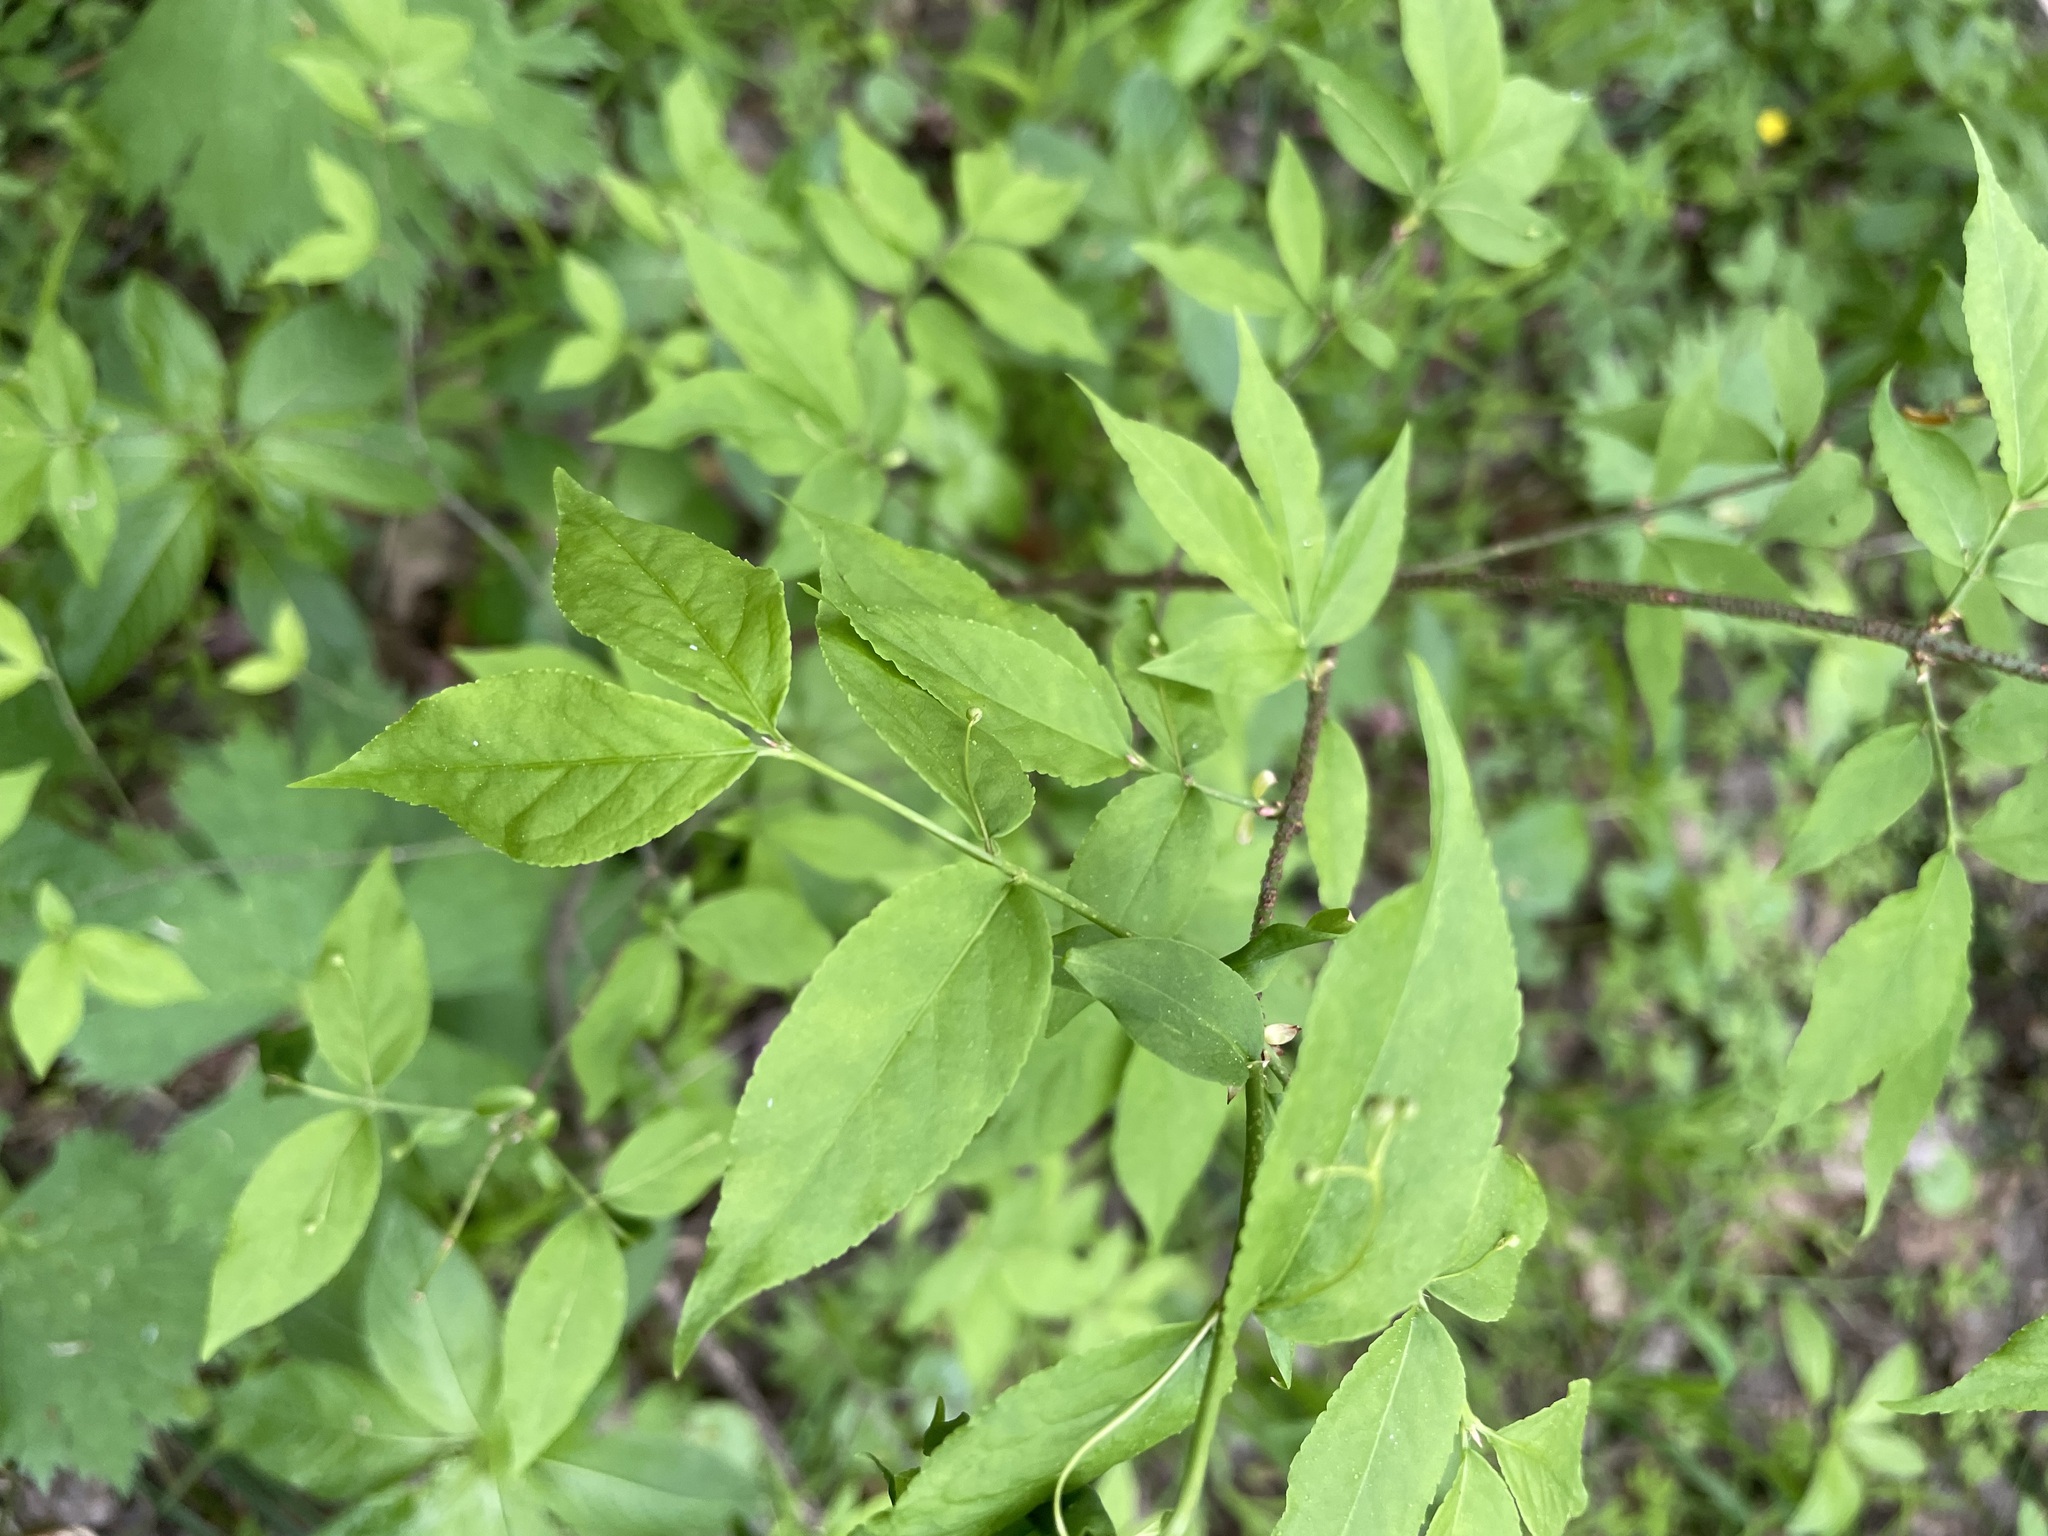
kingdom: Plantae
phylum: Tracheophyta
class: Magnoliopsida
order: Celastrales
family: Celastraceae
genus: Euonymus
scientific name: Euonymus verrucosus
